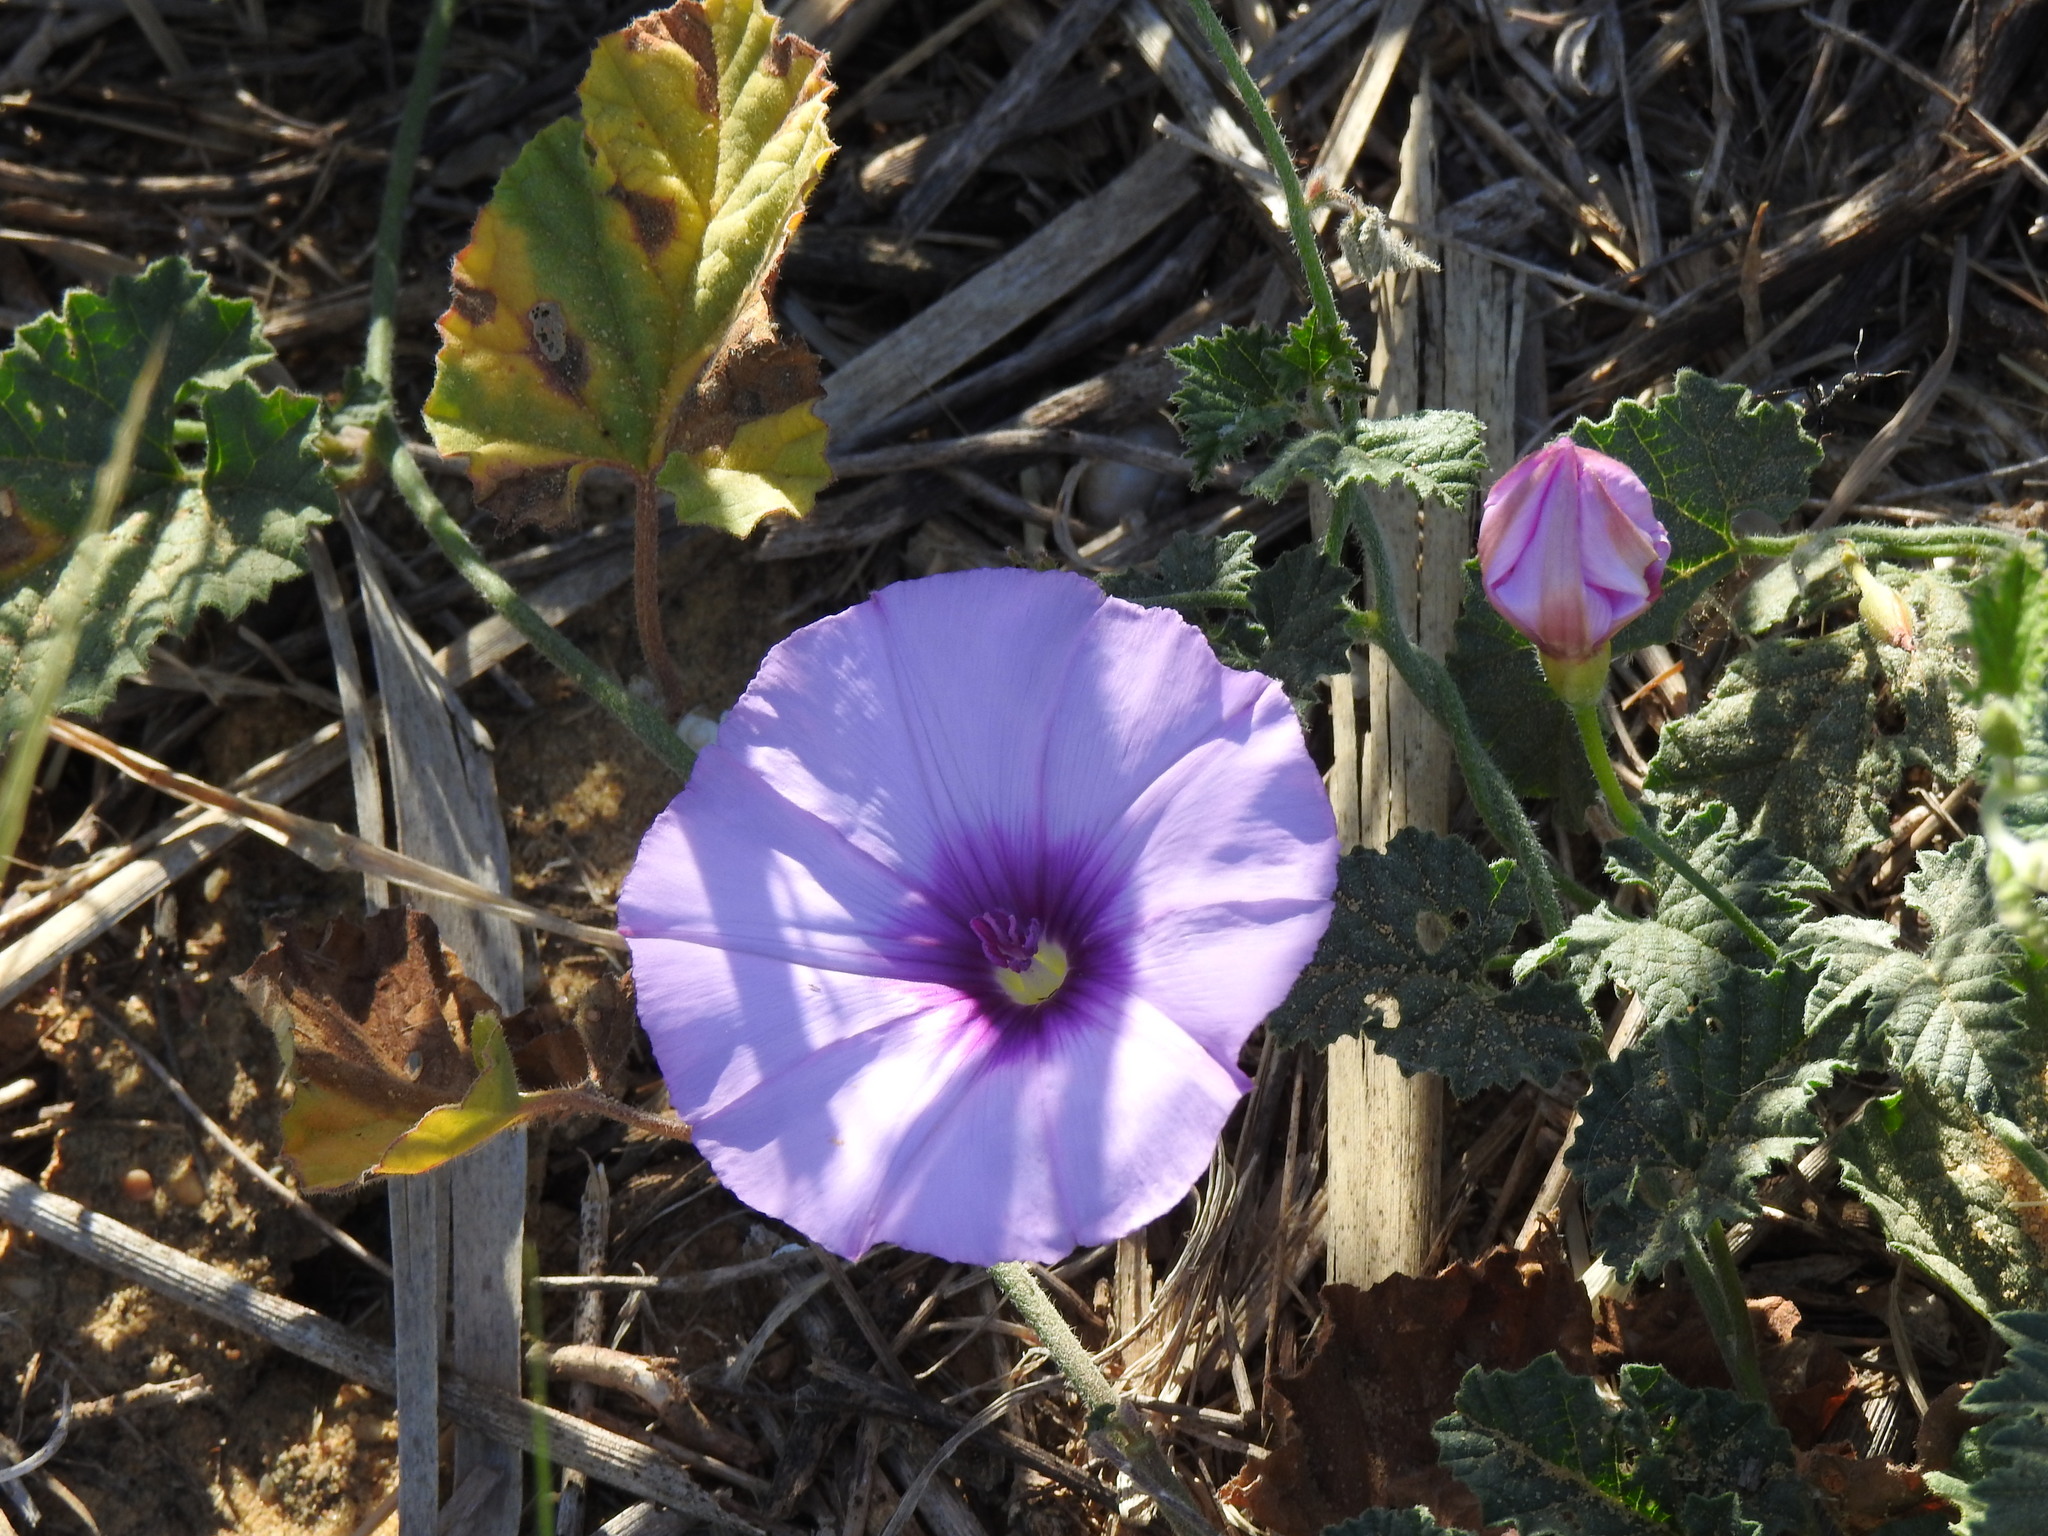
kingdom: Plantae
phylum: Tracheophyta
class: Magnoliopsida
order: Solanales
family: Convolvulaceae
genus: Convolvulus
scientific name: Convolvulus althaeoides
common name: Mallow bindweed
